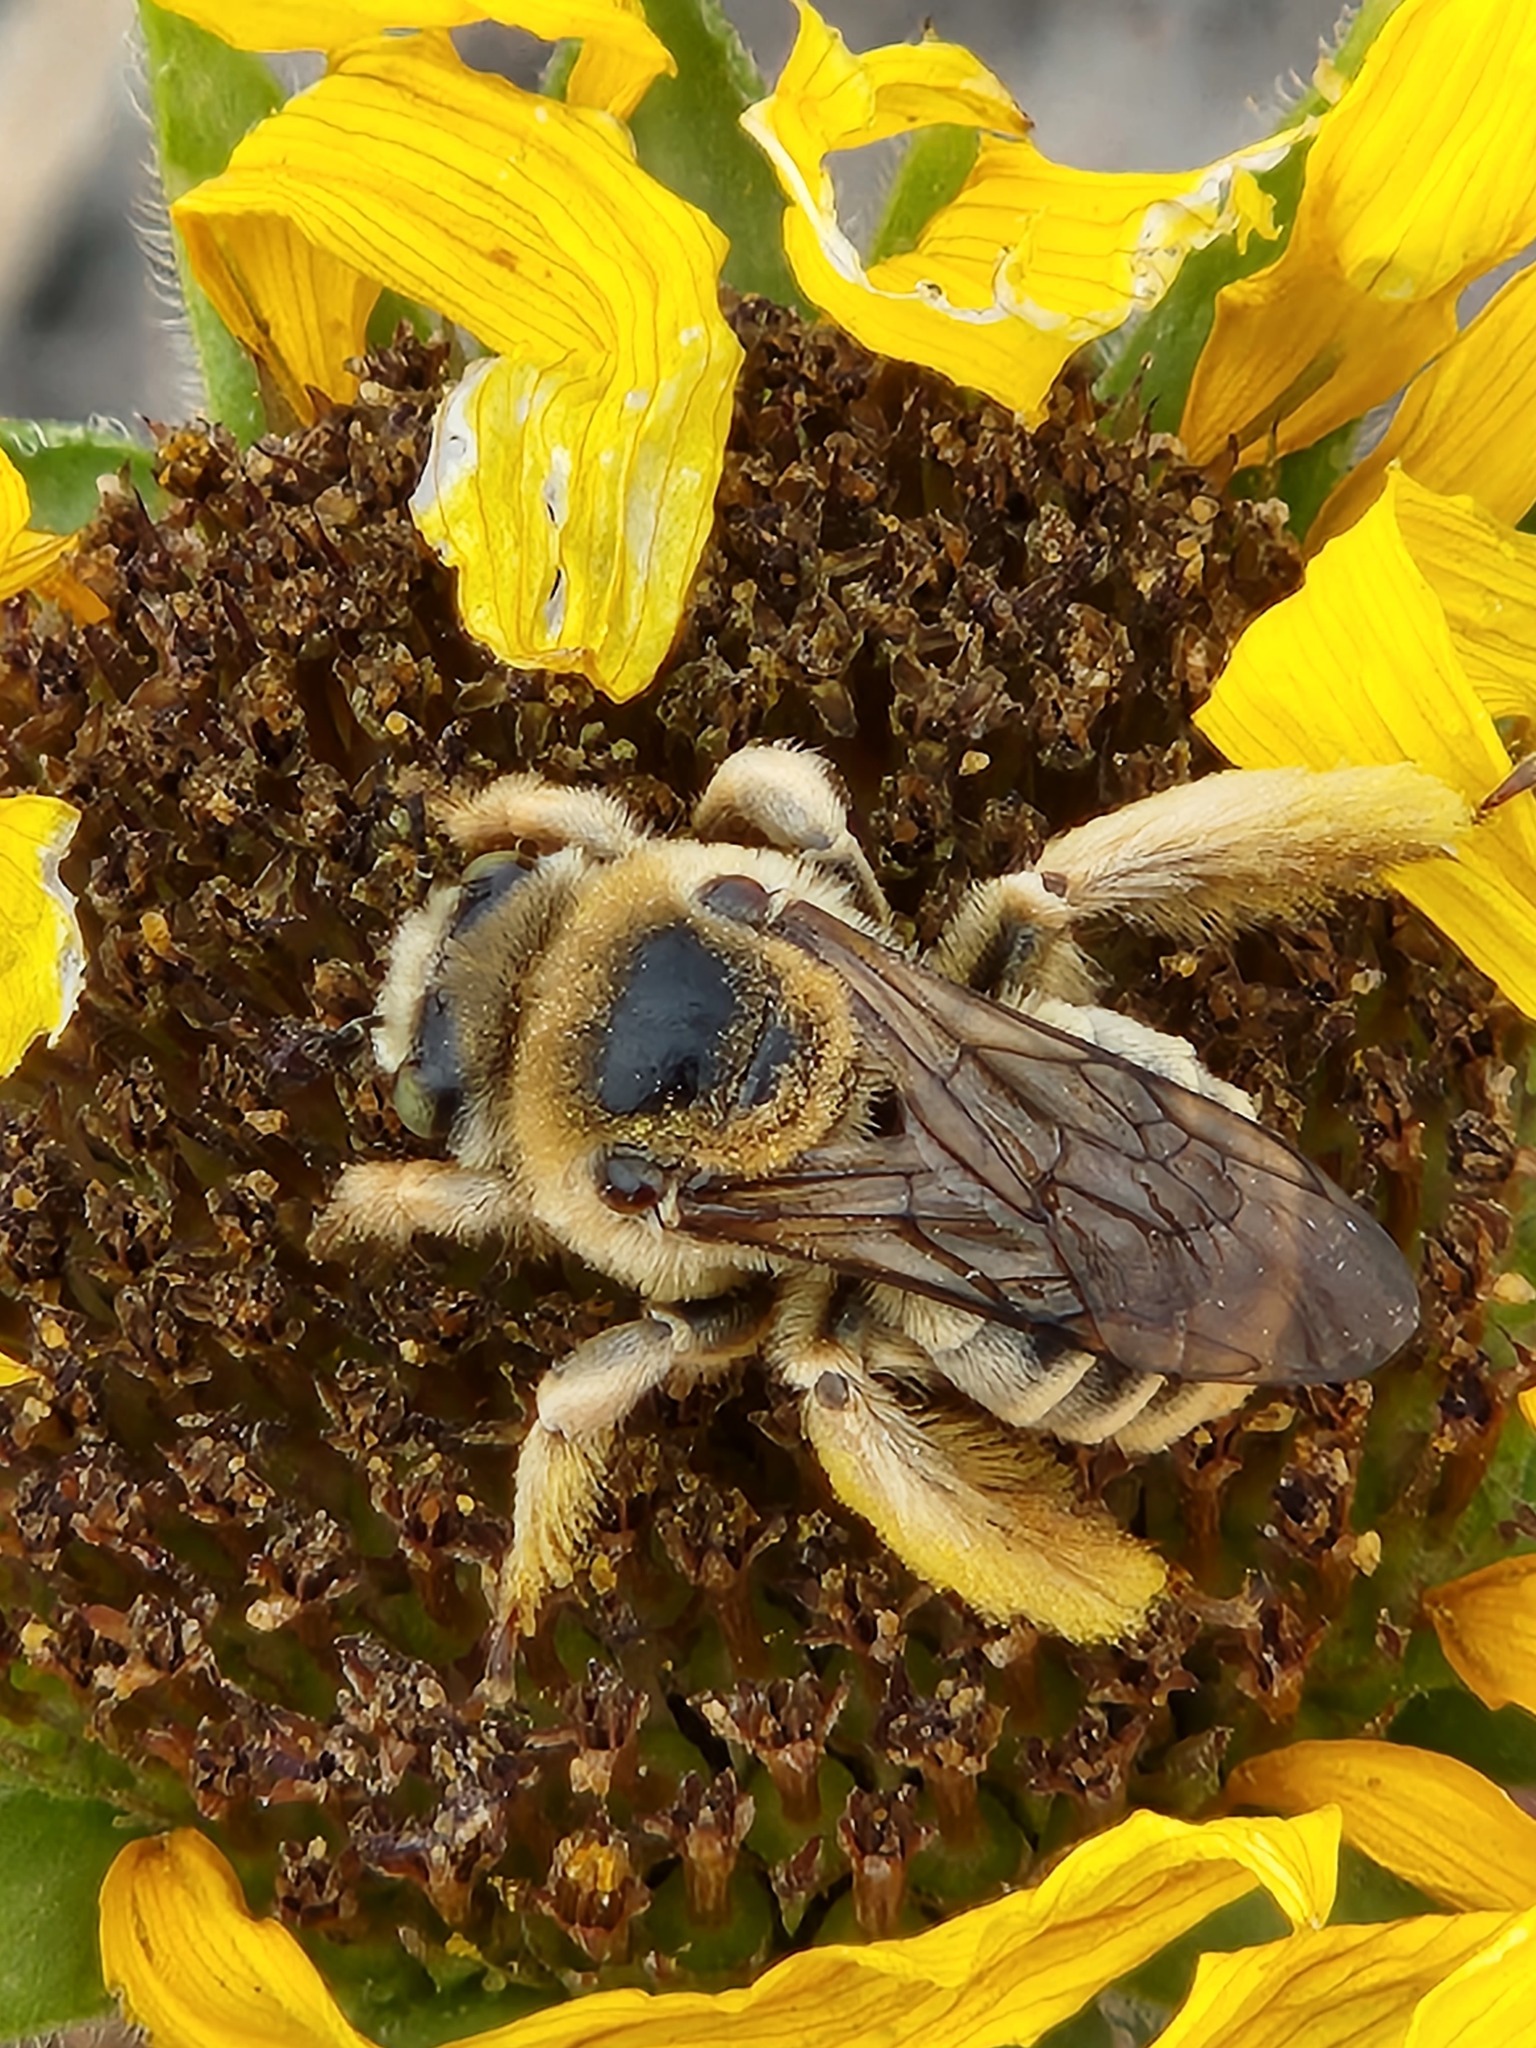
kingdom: Animalia
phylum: Arthropoda
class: Insecta
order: Hymenoptera
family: Apidae
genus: Diadasia
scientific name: Diadasia enavata
